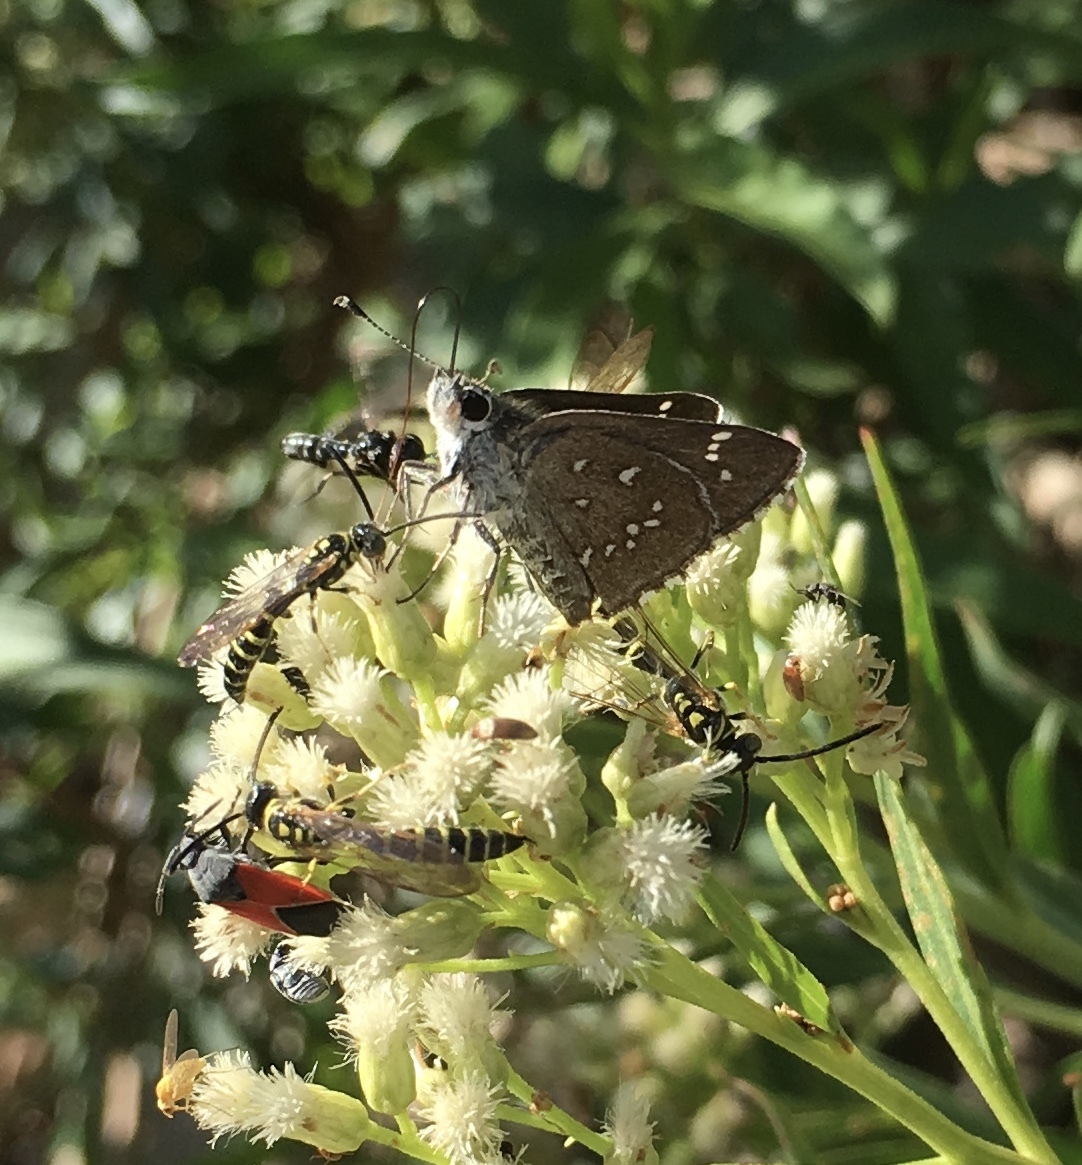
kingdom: Animalia
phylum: Arthropoda
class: Insecta
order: Lepidoptera
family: Hesperiidae
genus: Mastor
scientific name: Mastor eos
